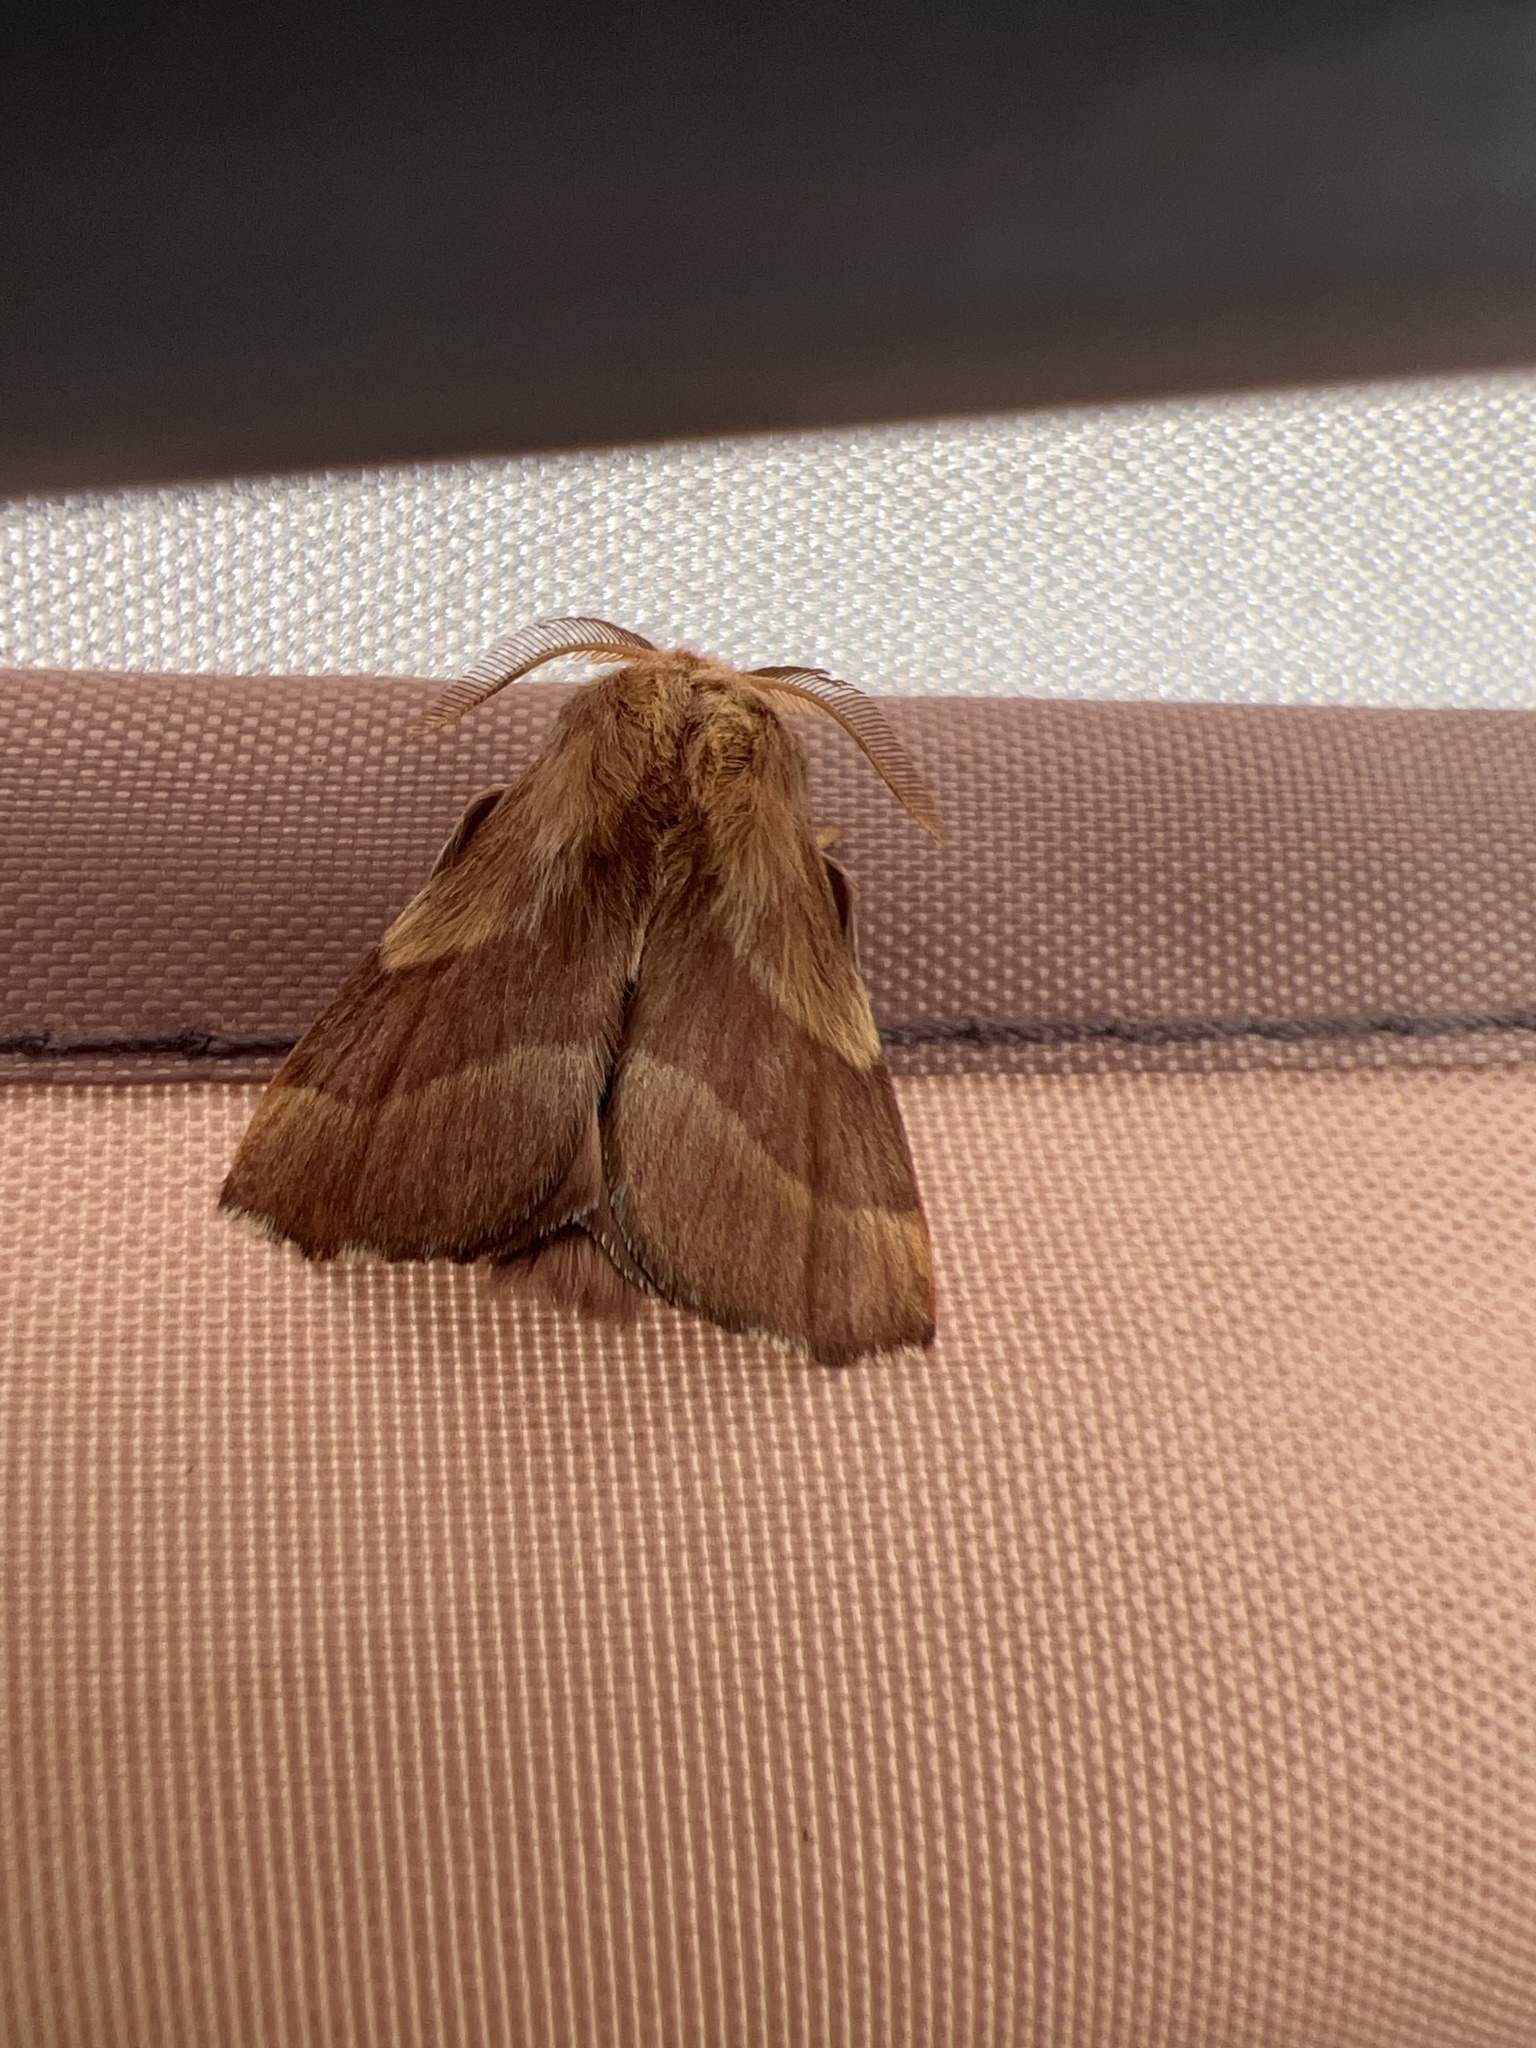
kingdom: Animalia
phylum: Arthropoda
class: Insecta
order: Lepidoptera
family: Lasiocampidae
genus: Malacosoma
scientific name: Malacosoma disstria
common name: Forest tent caterpillar
